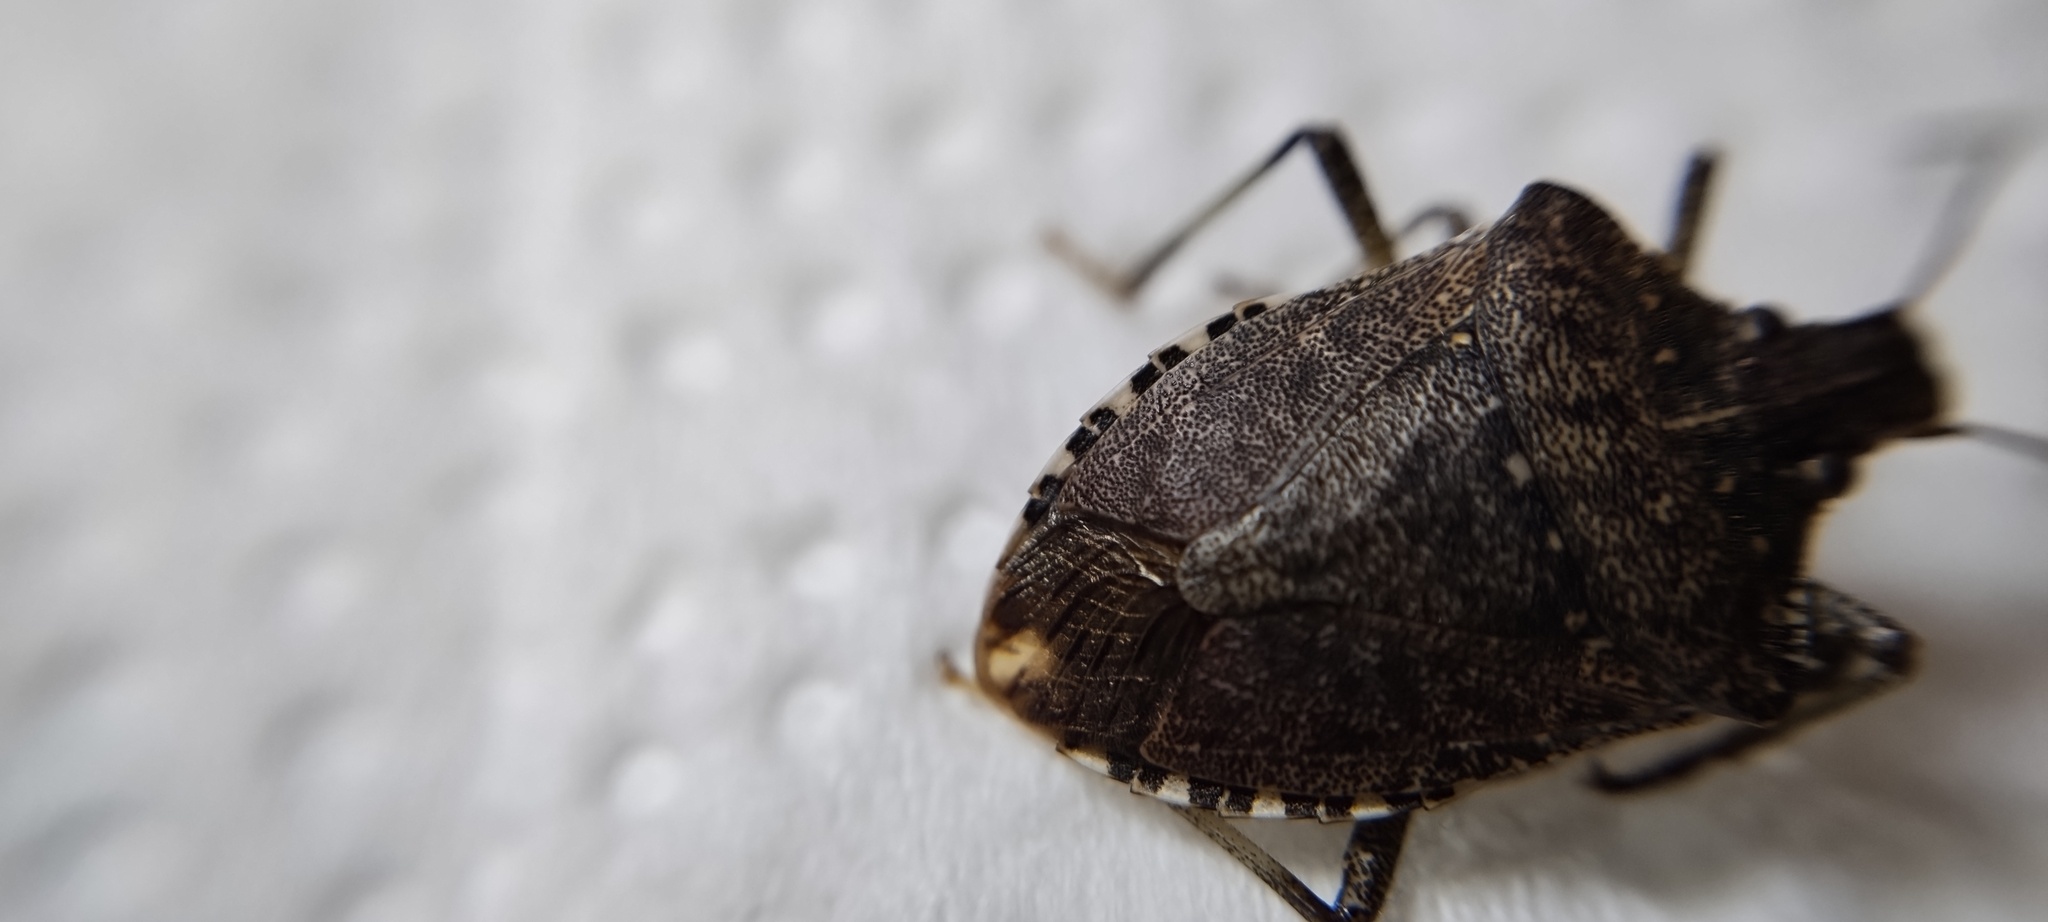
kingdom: Animalia
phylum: Arthropoda
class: Insecta
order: Hemiptera
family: Pentatomidae
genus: Halyomorpha
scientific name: Halyomorpha halys
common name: Brown marmorated stink bug
